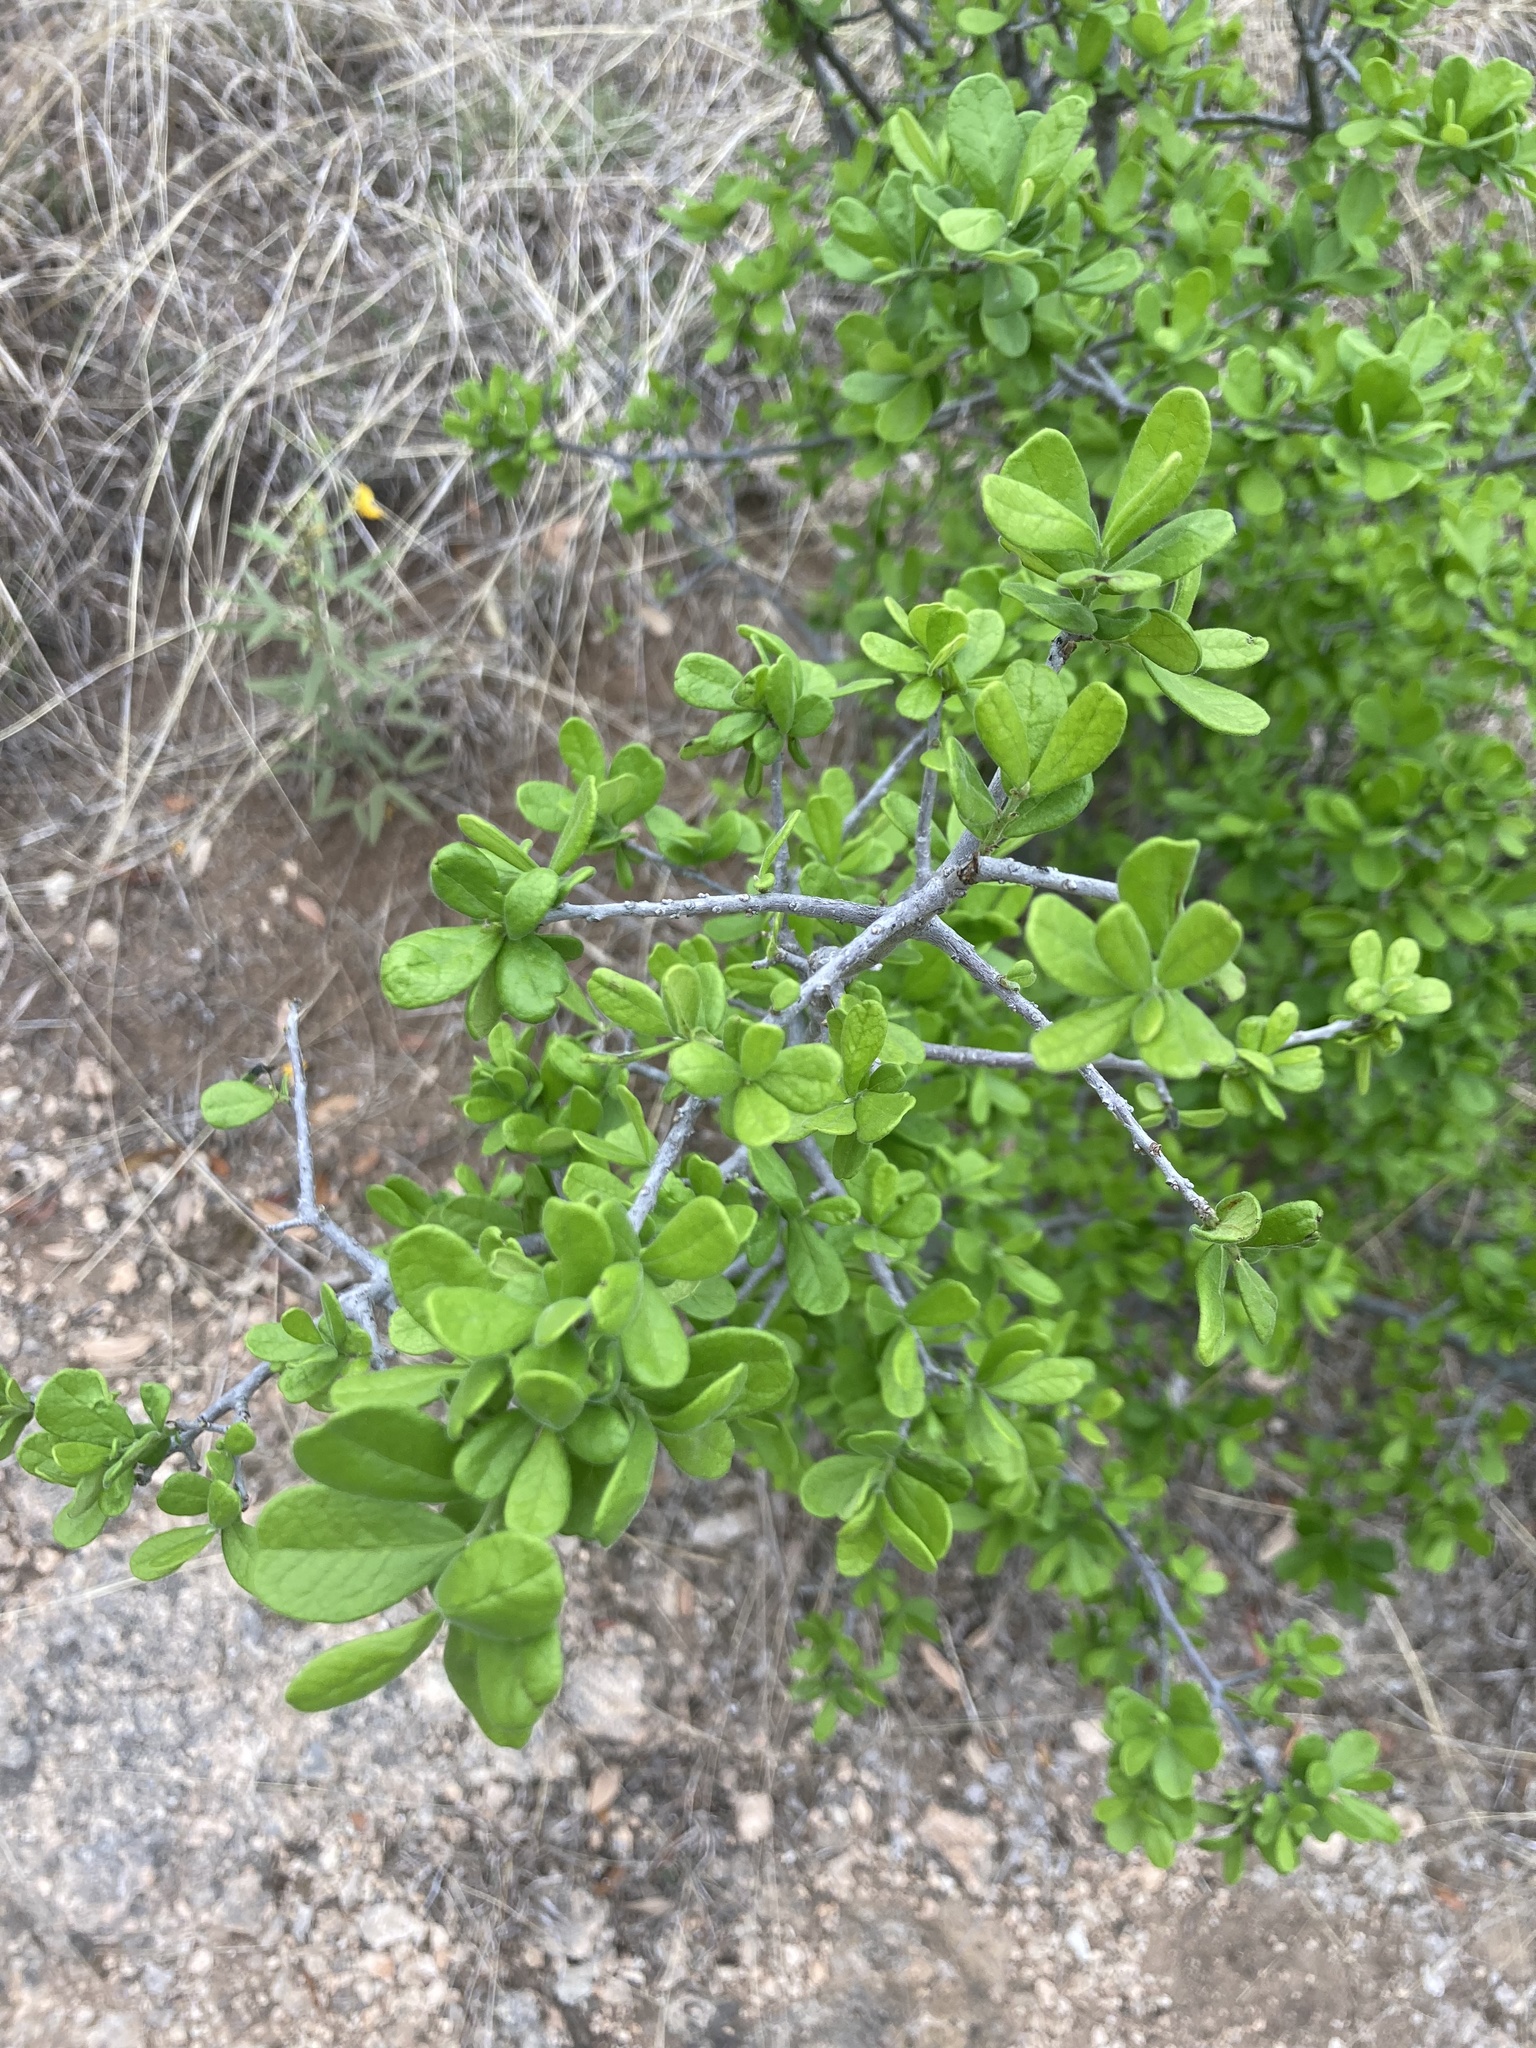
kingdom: Plantae
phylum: Tracheophyta
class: Magnoliopsida
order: Ericales
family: Ebenaceae
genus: Diospyros
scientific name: Diospyros texana
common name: Texas persimmon
